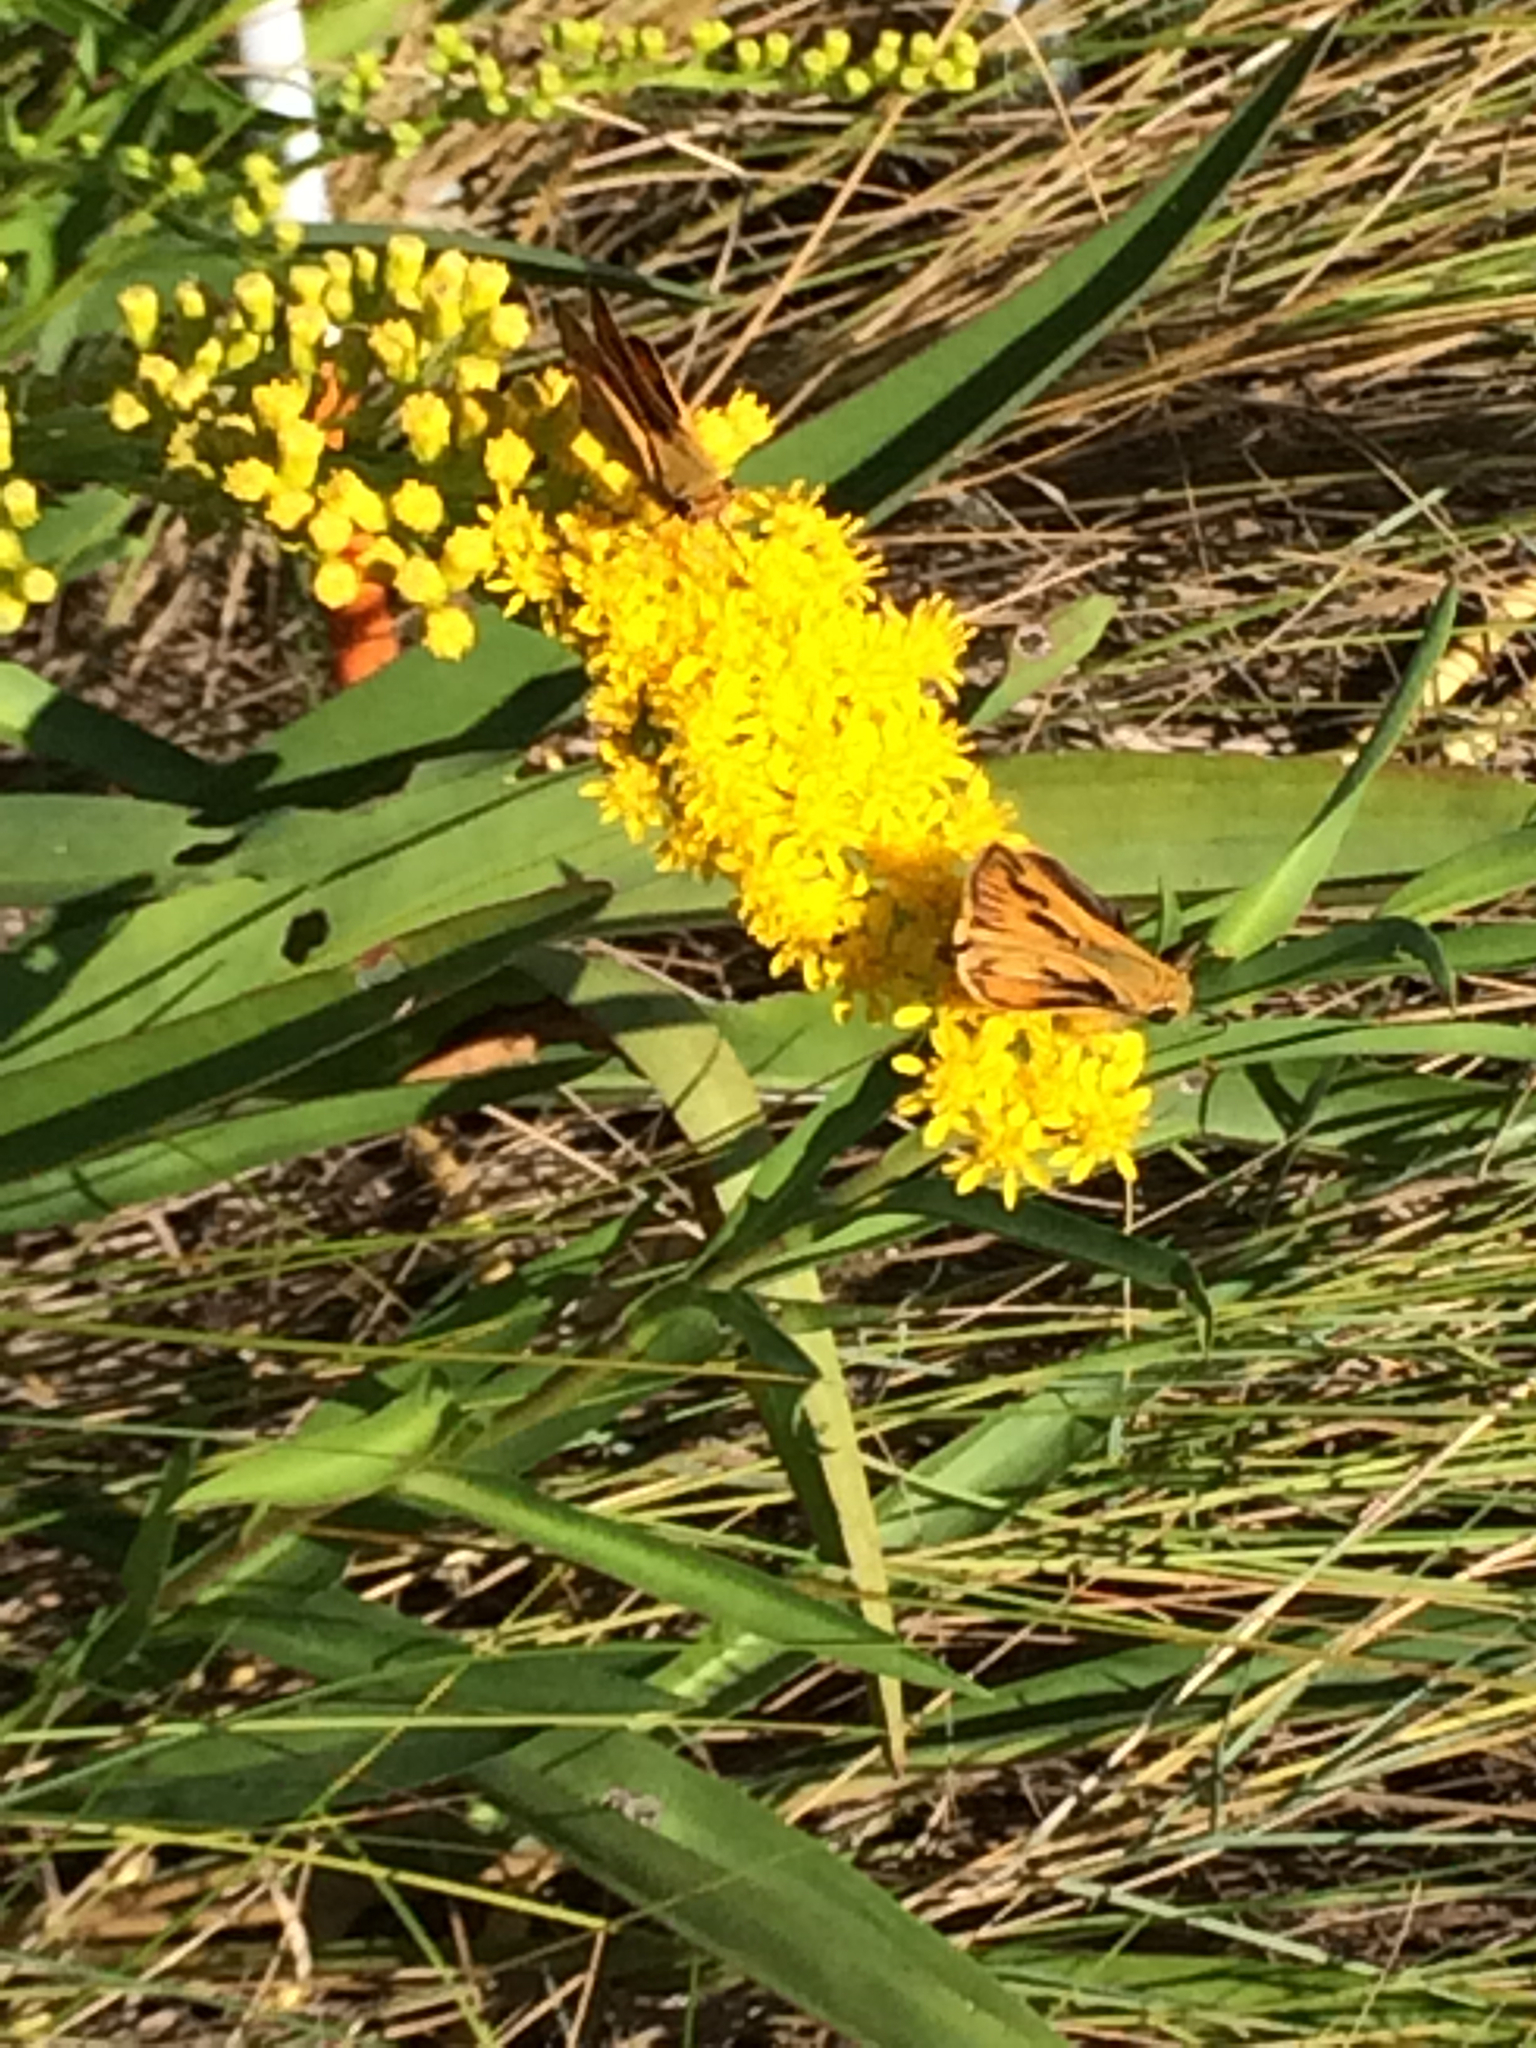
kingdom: Animalia
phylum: Arthropoda
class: Insecta
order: Lepidoptera
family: Hesperiidae
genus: Hylephila
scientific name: Hylephila phyleus
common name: Fiery skipper
